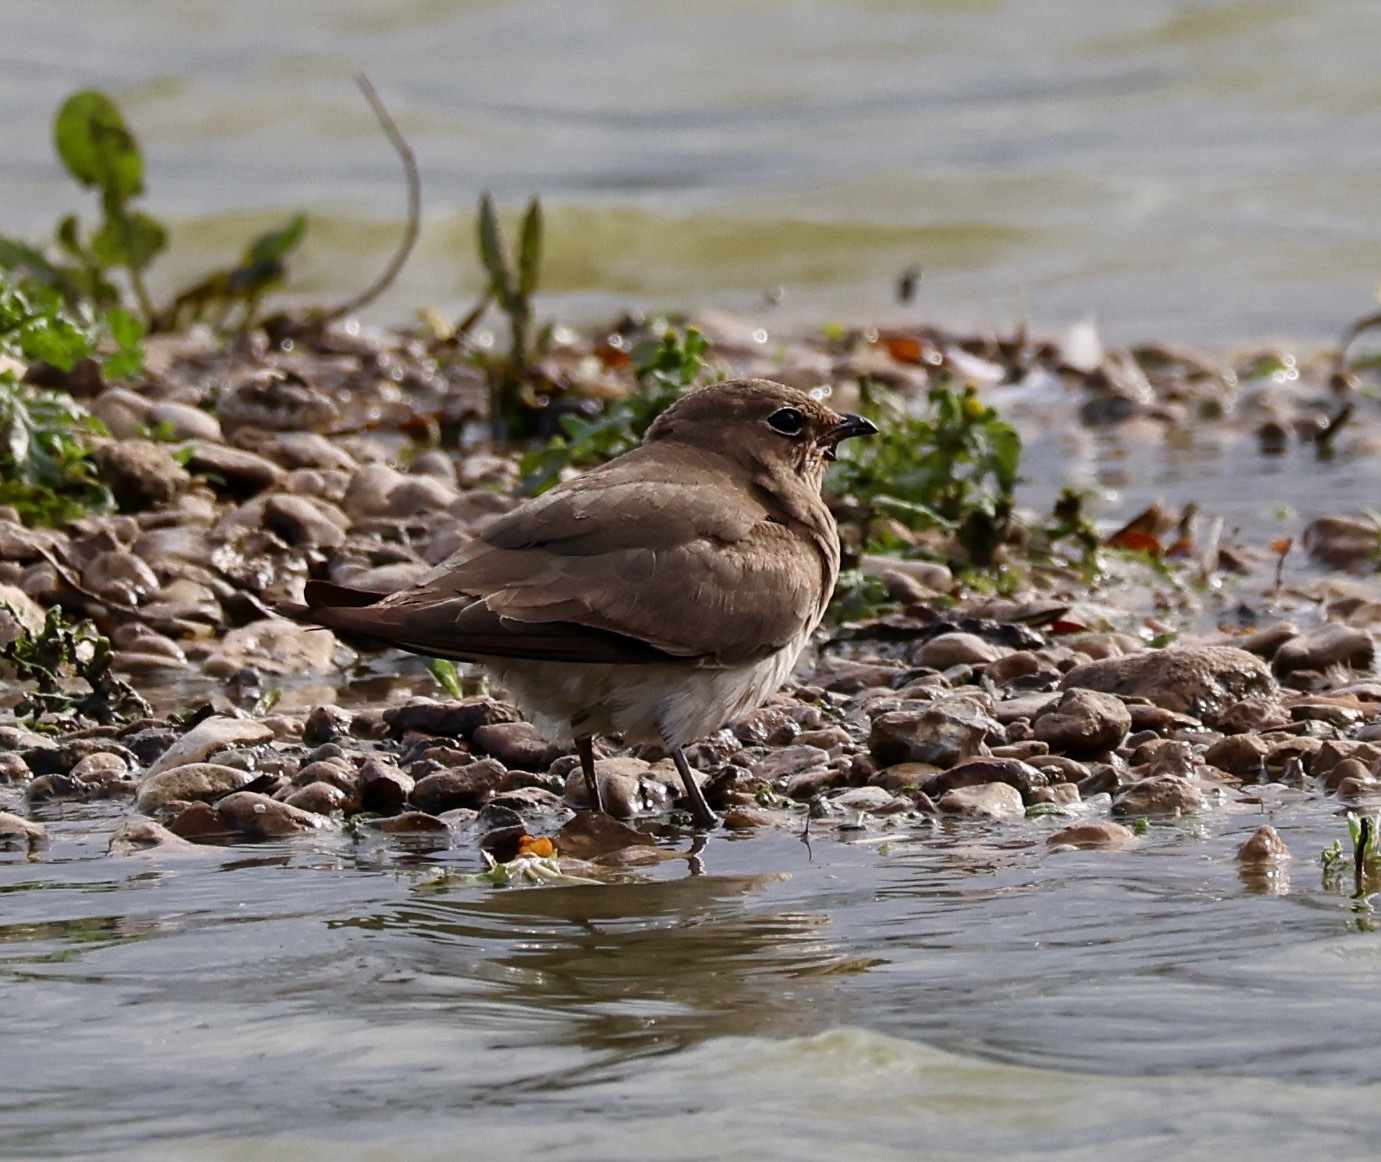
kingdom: Animalia
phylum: Chordata
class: Aves
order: Charadriiformes
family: Glareolidae
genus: Glareola
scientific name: Glareola pratincola
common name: Collared pratincole
